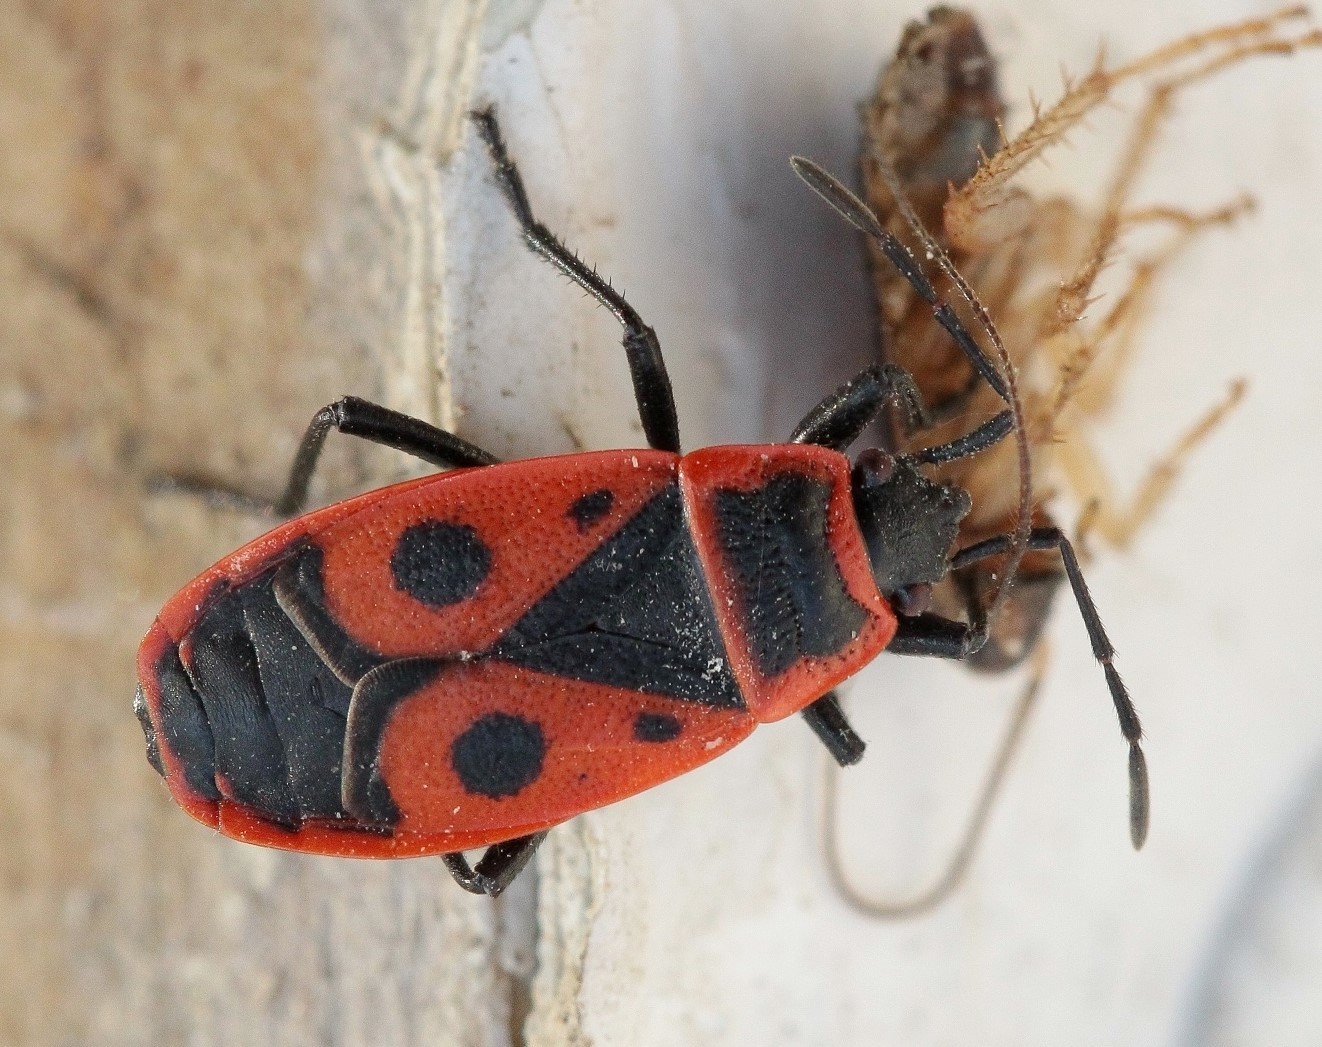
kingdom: Animalia
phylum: Arthropoda
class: Insecta
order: Hemiptera
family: Pyrrhocoridae
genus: Pyrrhocoris
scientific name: Pyrrhocoris apterus
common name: Firebug
